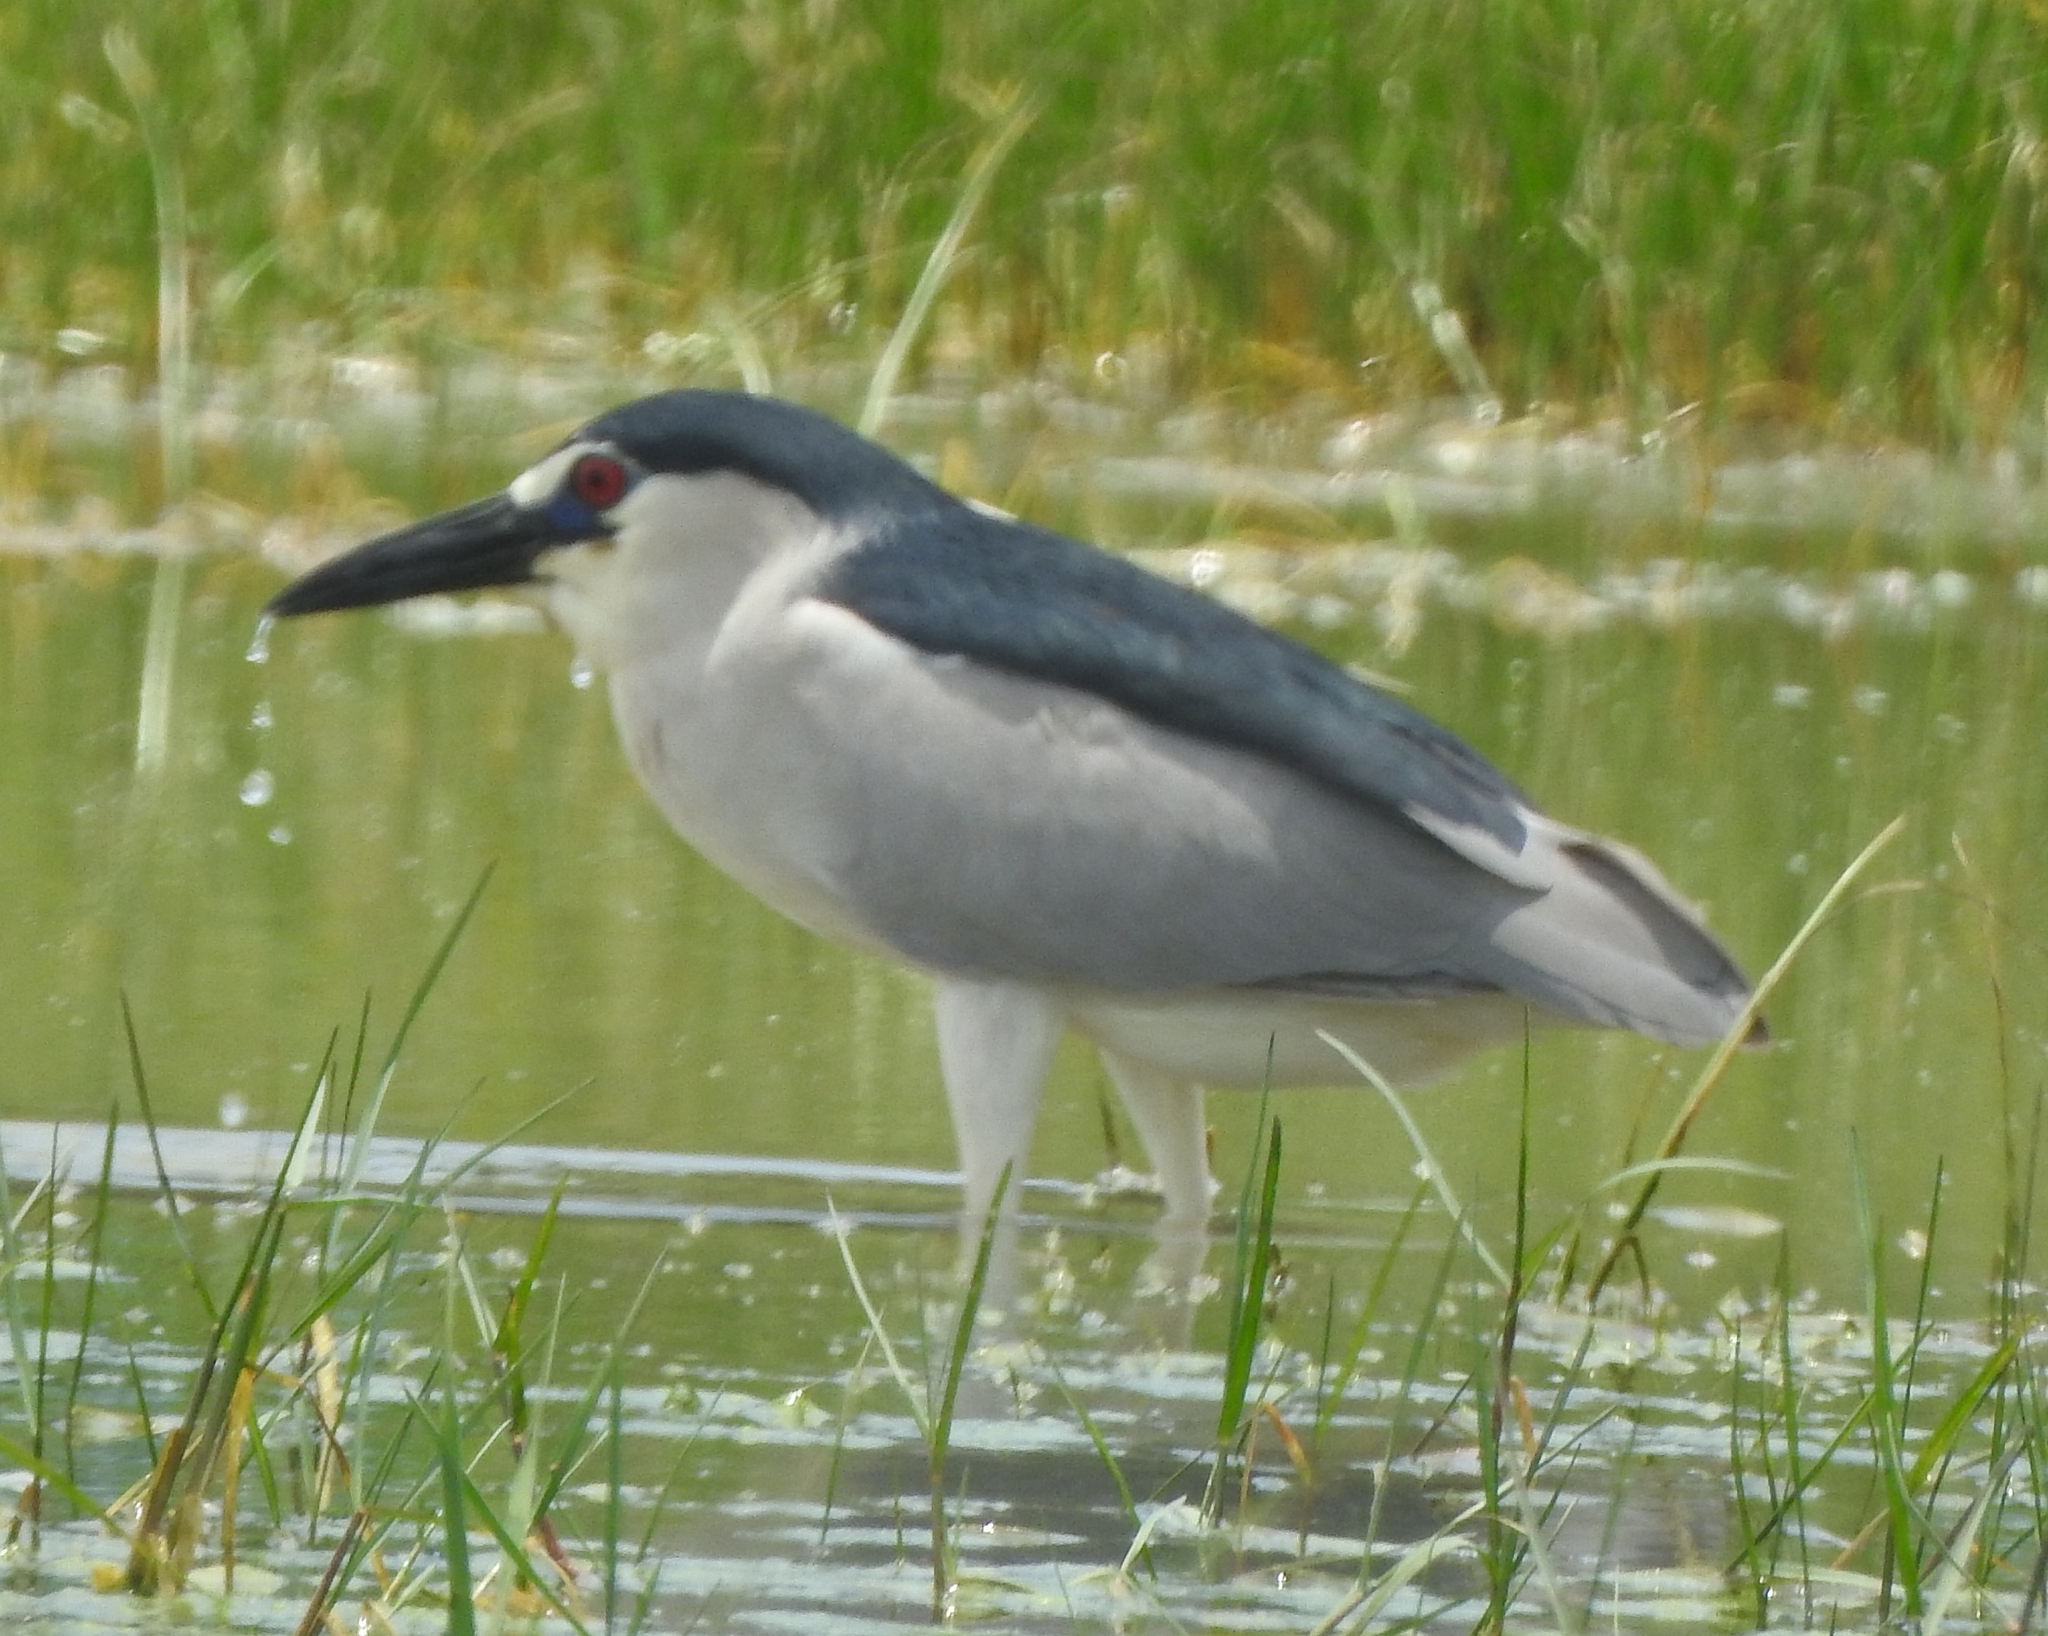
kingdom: Animalia
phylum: Chordata
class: Aves
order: Pelecaniformes
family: Ardeidae
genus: Nycticorax
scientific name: Nycticorax nycticorax
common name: Black-crowned night heron
